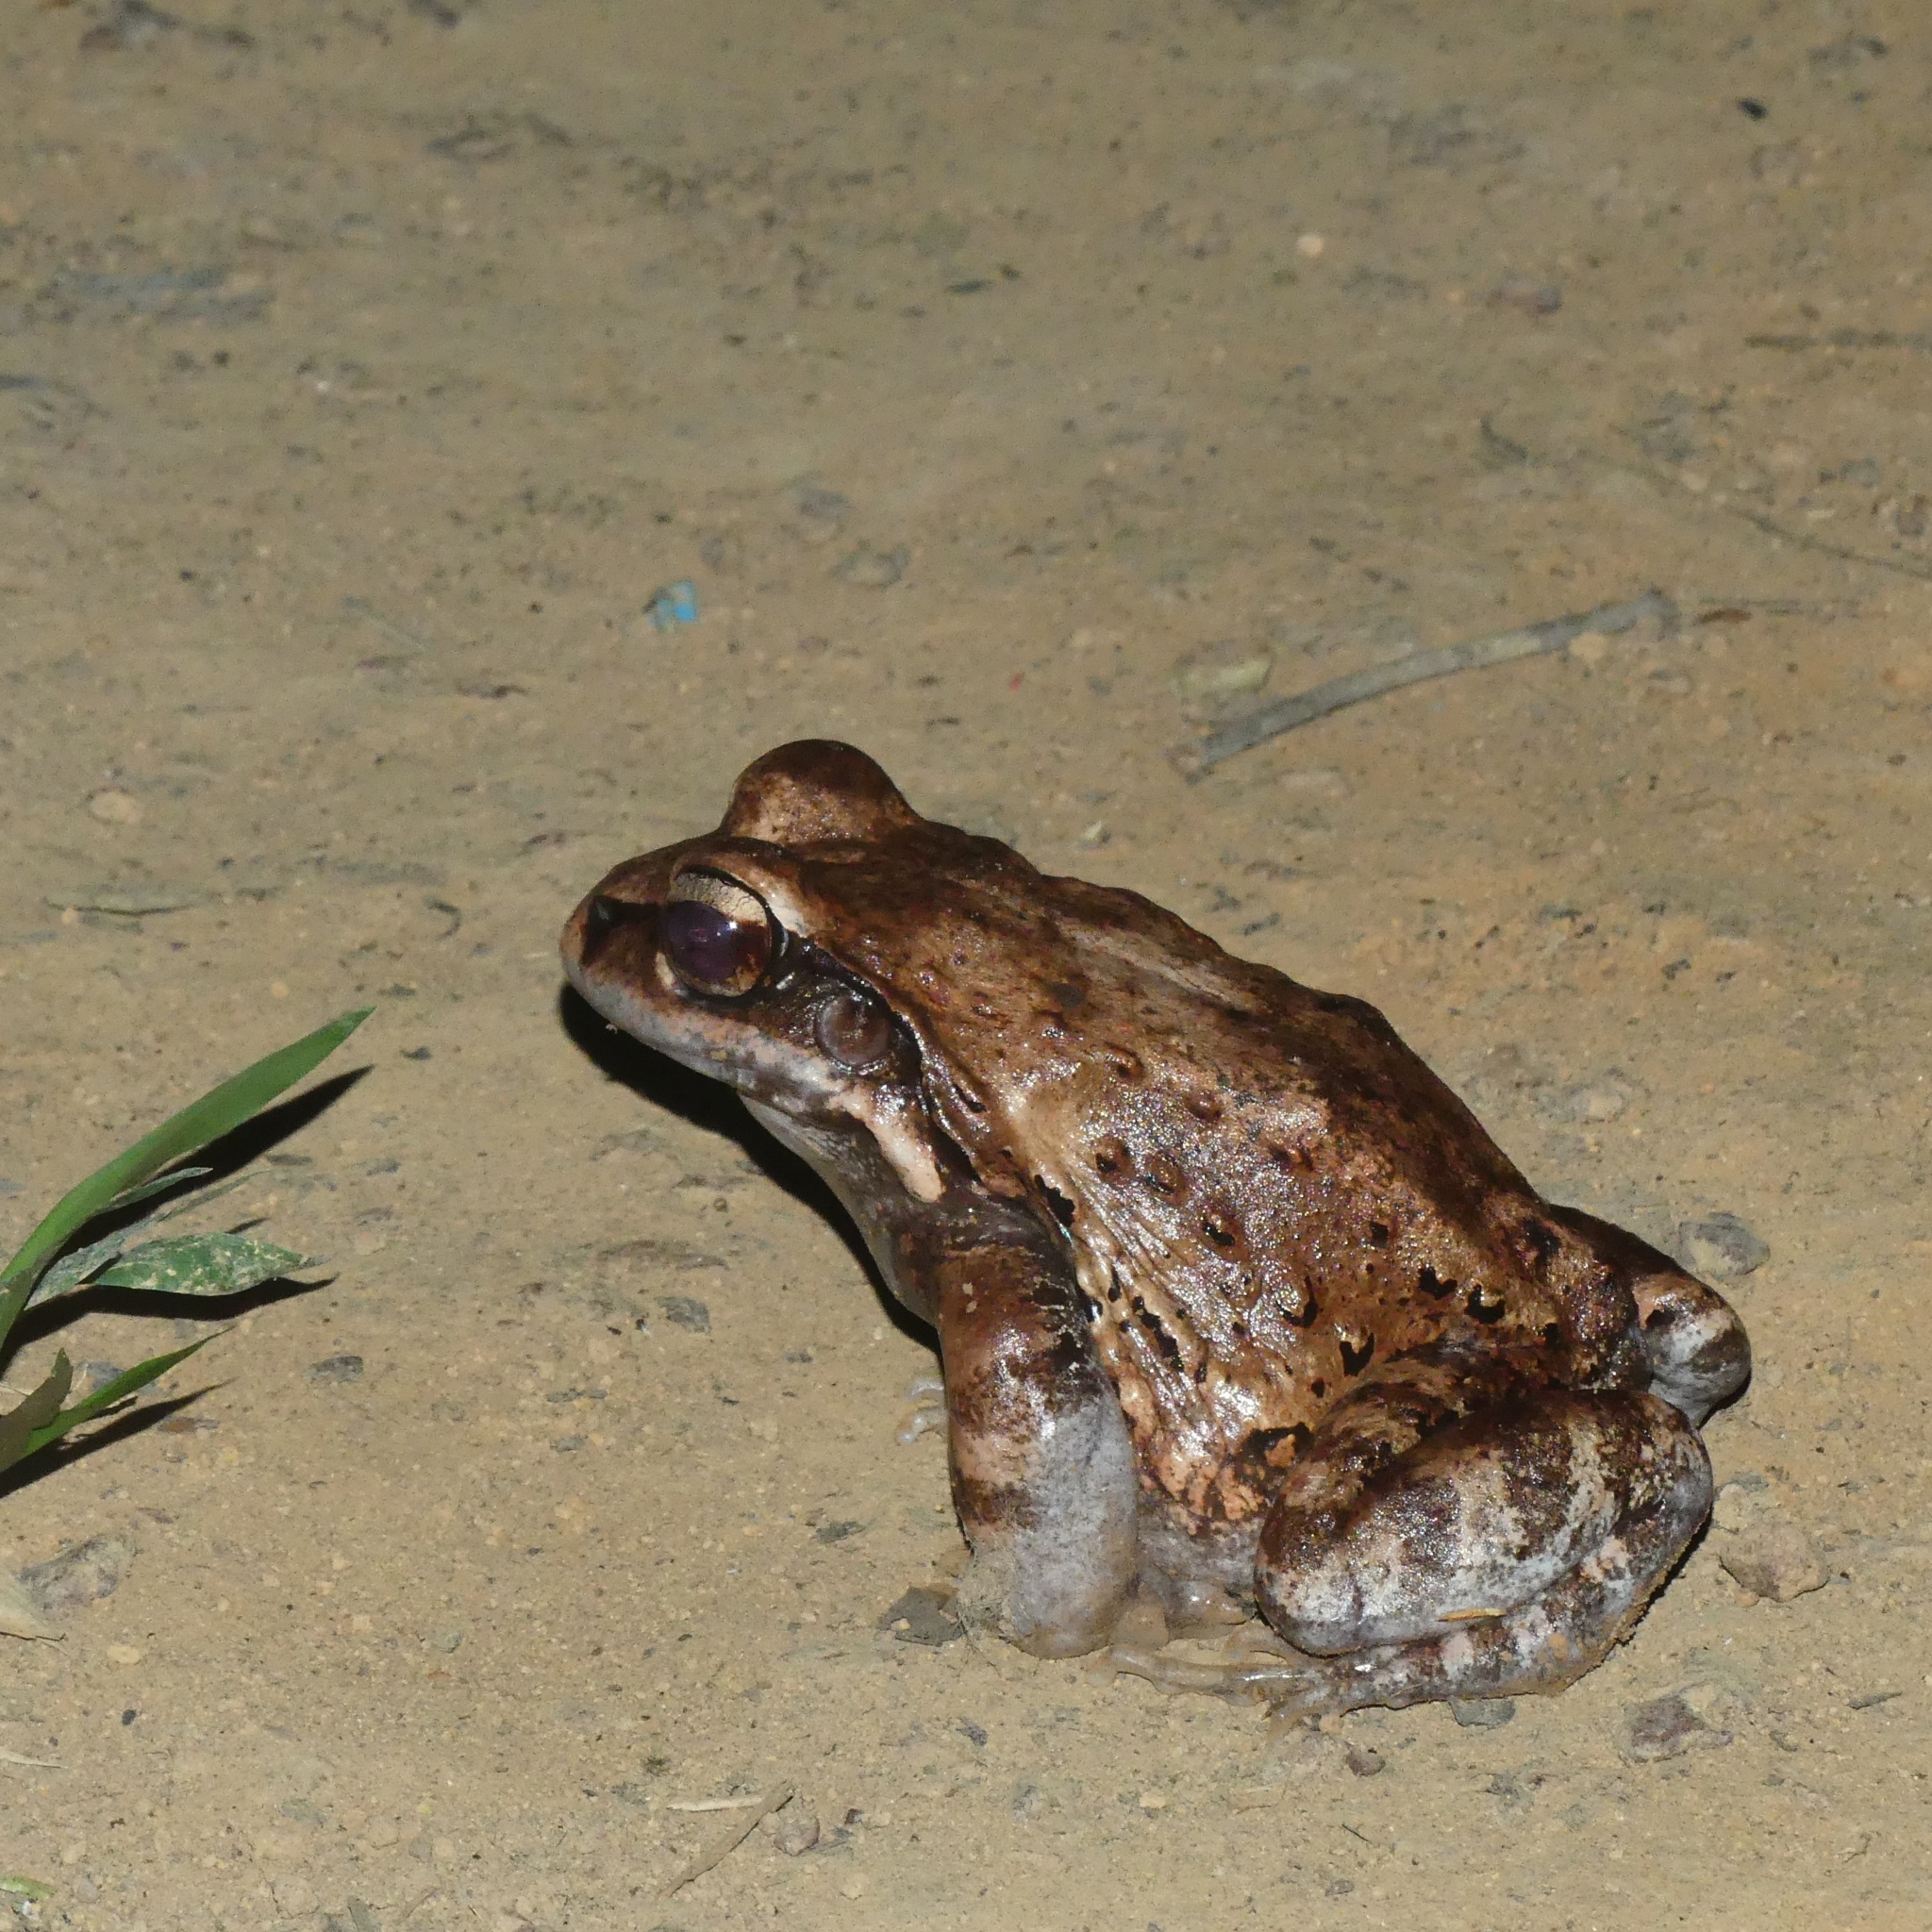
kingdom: Animalia
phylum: Chordata
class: Amphibia
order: Anura
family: Leptodactylidae
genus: Leptodactylus
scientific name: Leptodactylus myersi
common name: Myers' thin-toed frog
